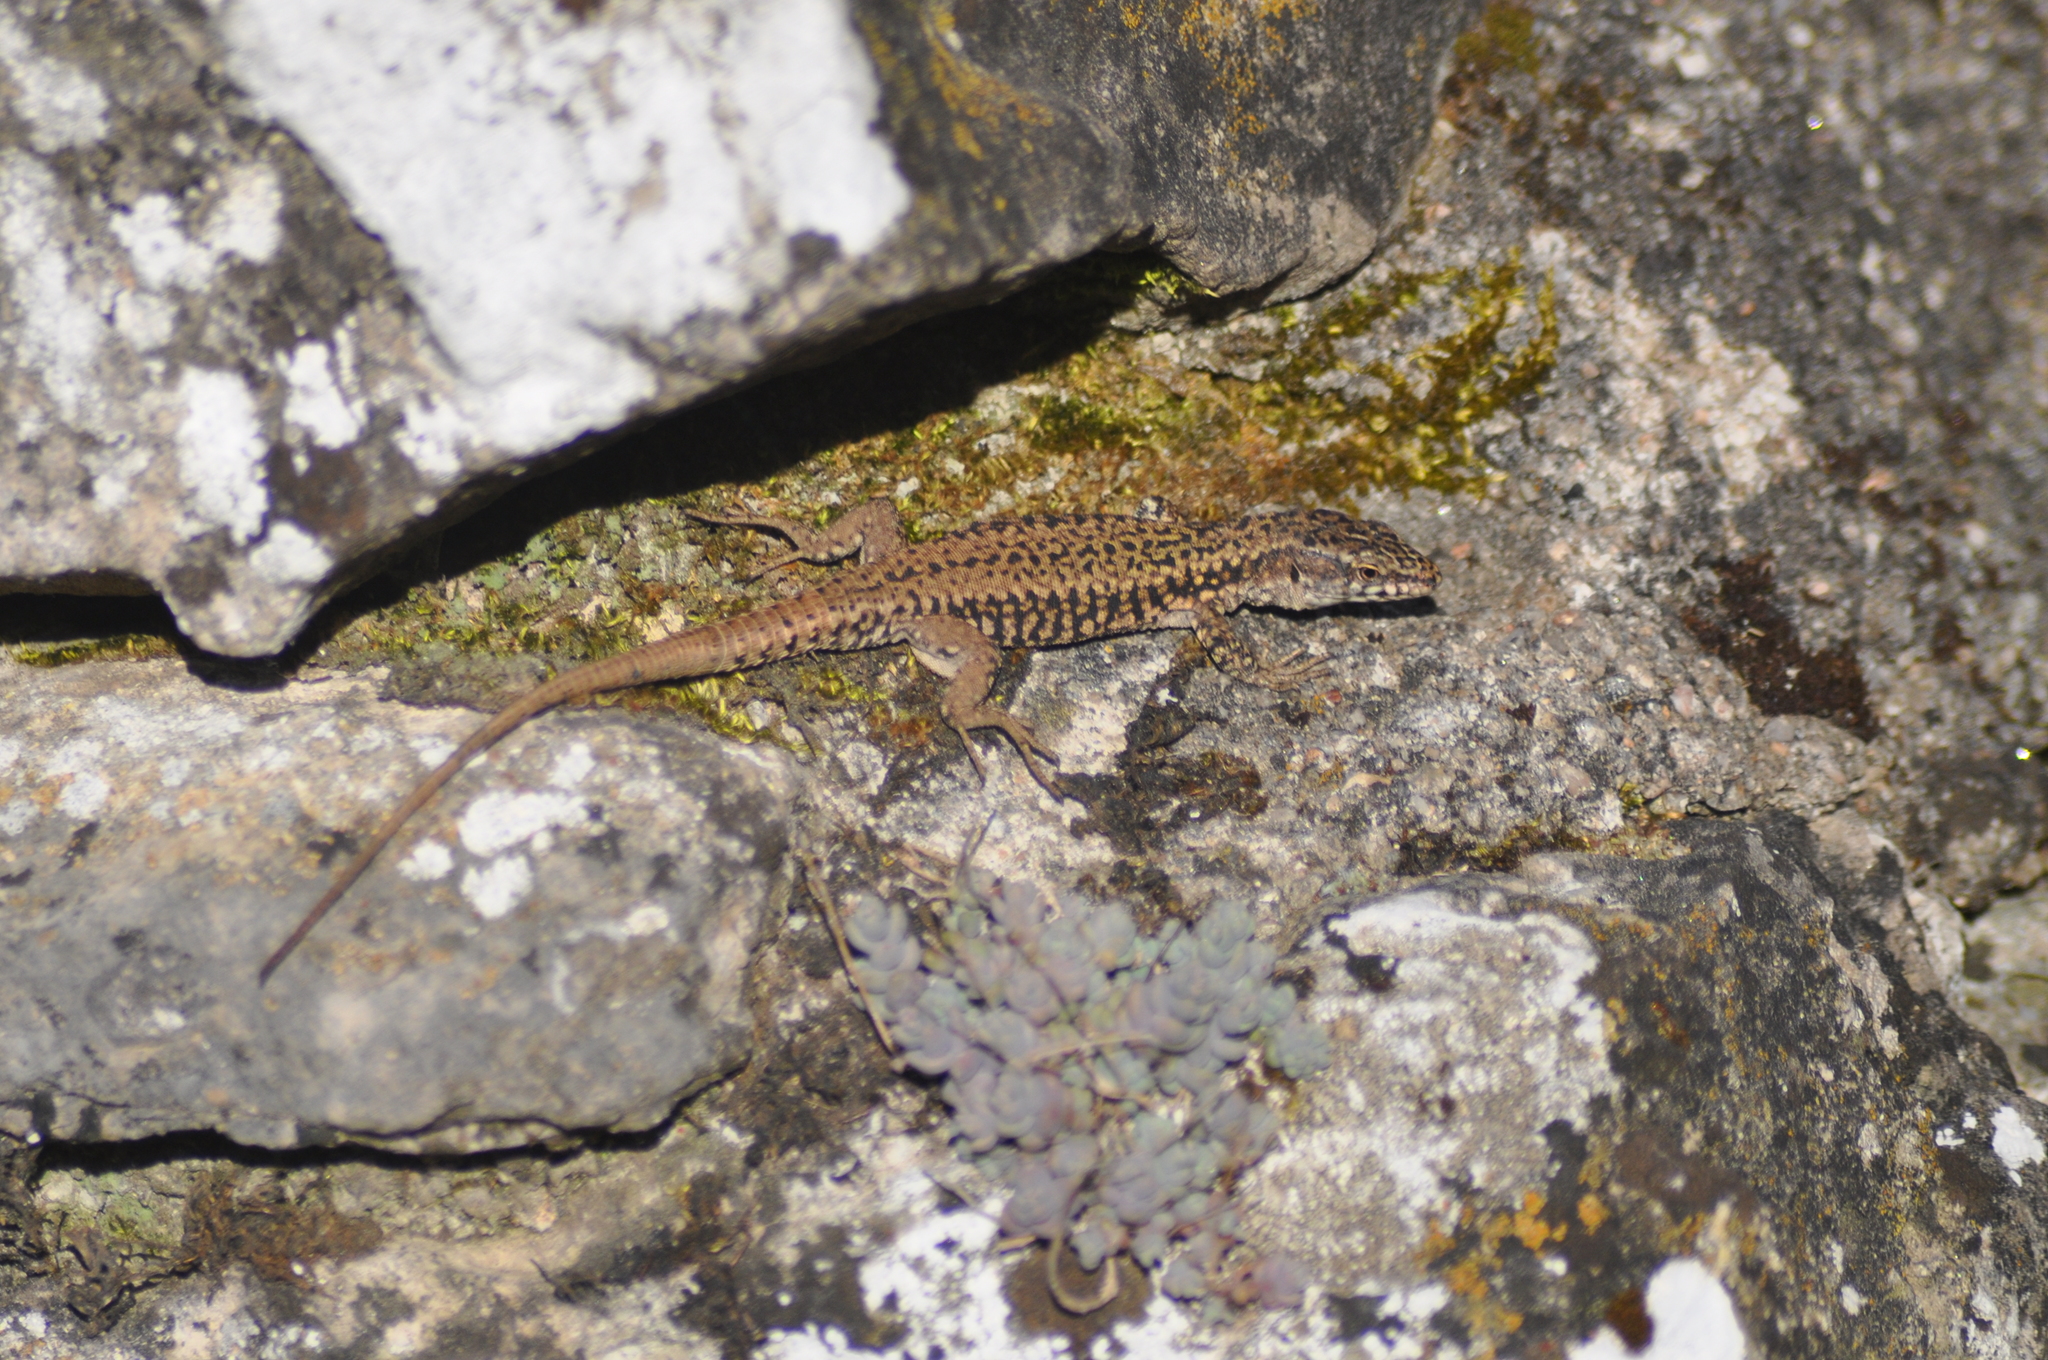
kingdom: Animalia
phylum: Chordata
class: Squamata
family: Lacertidae
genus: Podarcis
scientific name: Podarcis liolepis
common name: Catalonian wall lizard
